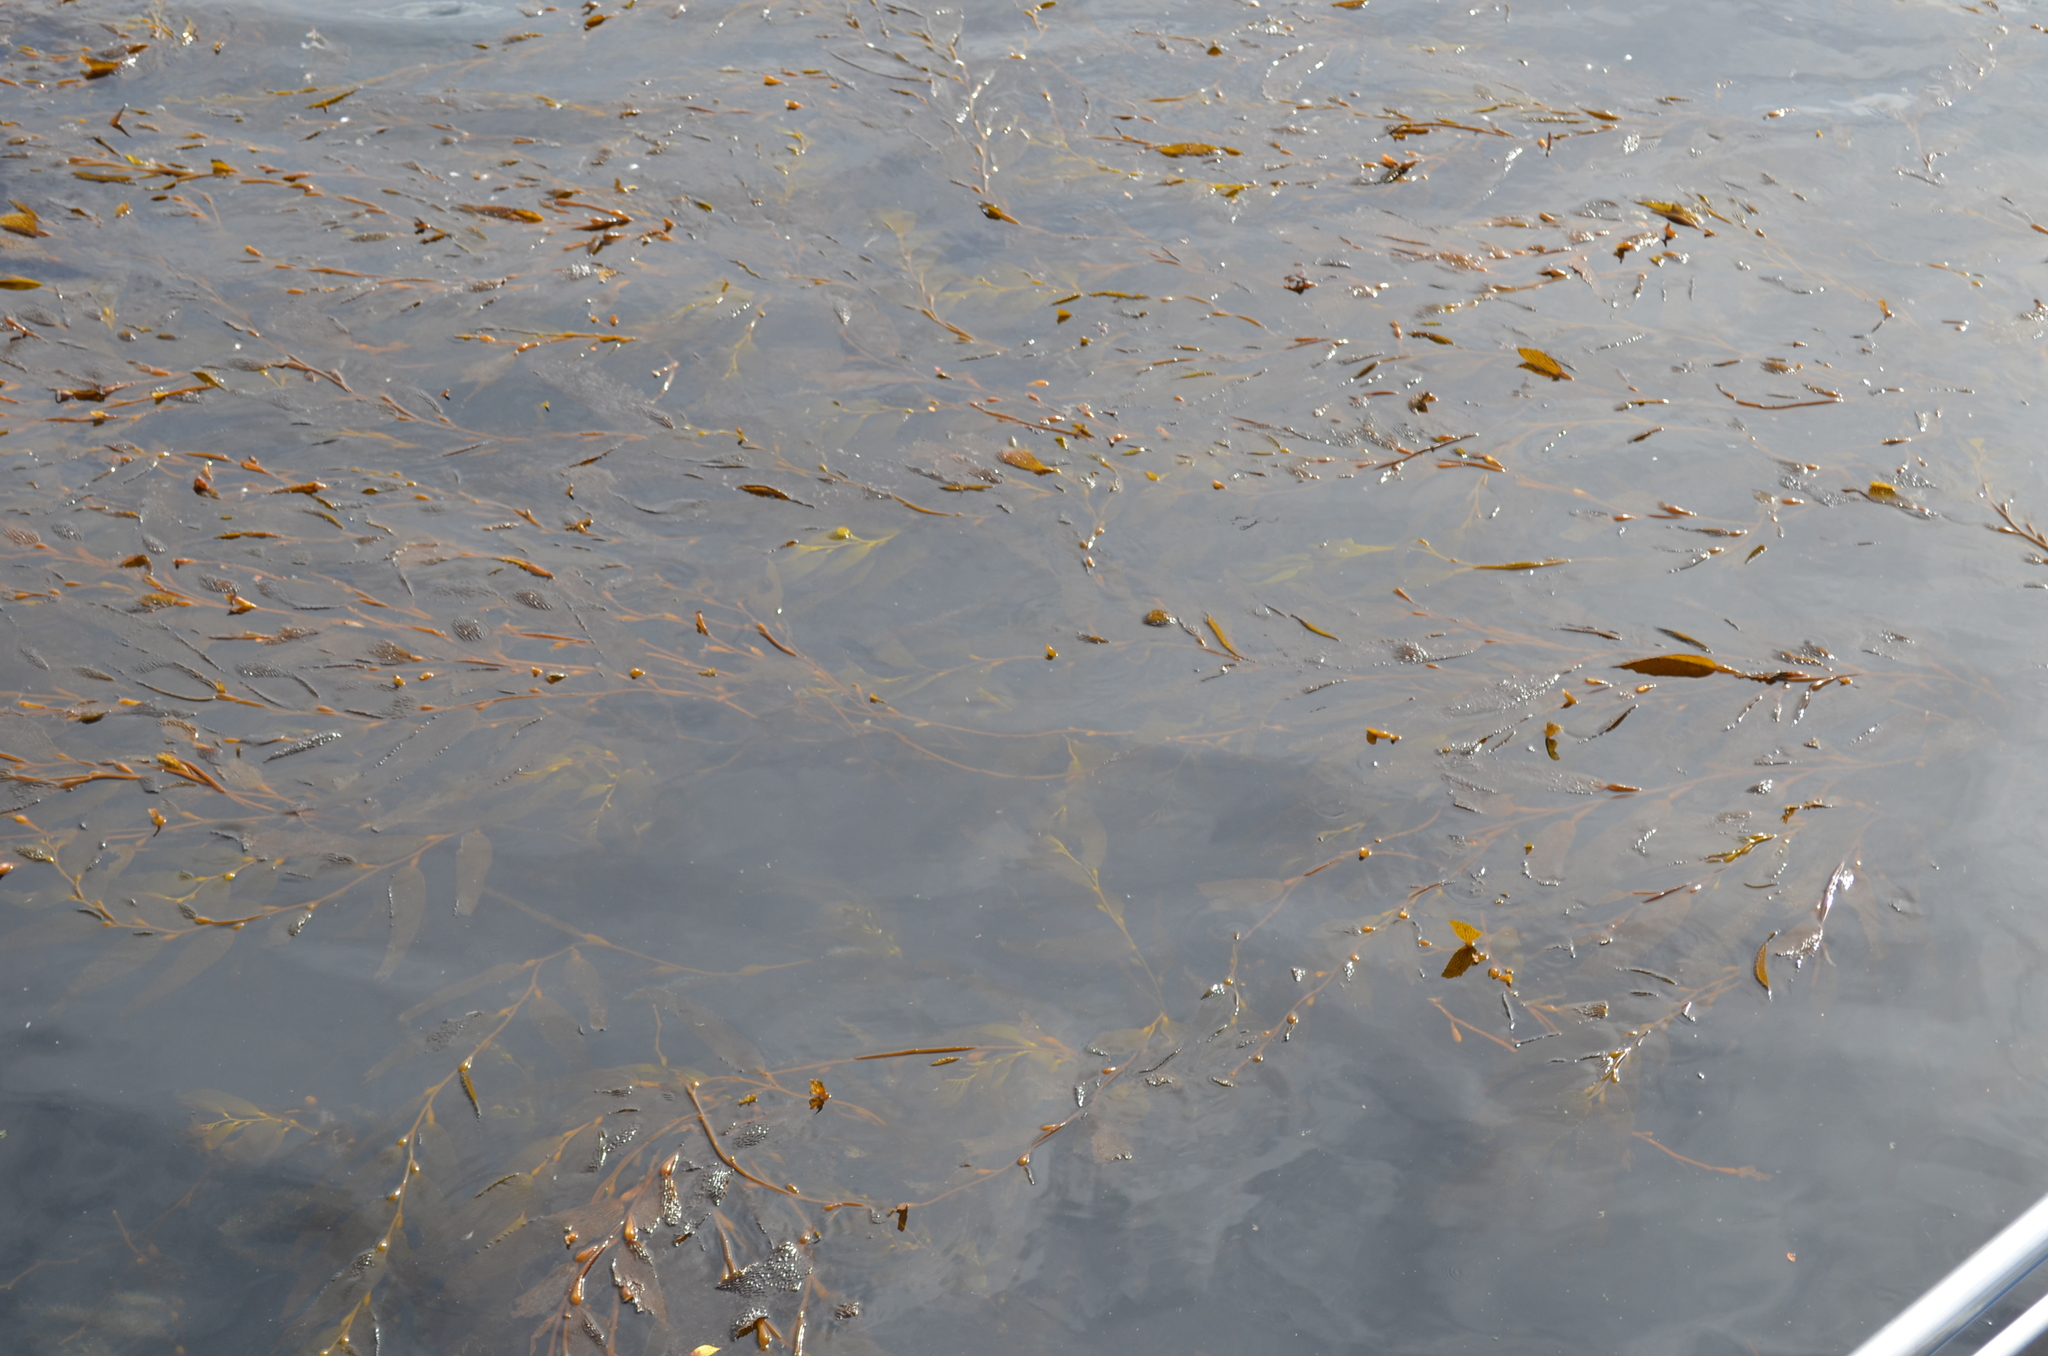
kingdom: Chromista
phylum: Ochrophyta
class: Phaeophyceae
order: Laminariales
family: Laminariaceae
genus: Macrocystis
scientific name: Macrocystis pyrifera
